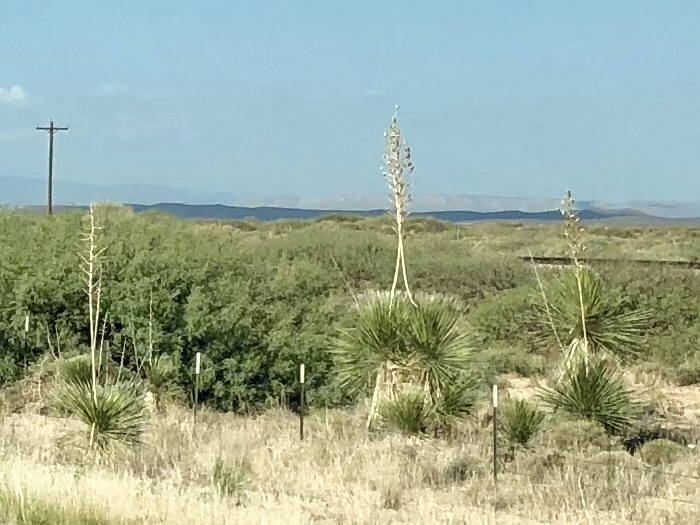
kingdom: Plantae
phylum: Tracheophyta
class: Liliopsida
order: Asparagales
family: Asparagaceae
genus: Yucca
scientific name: Yucca elata
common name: Palmella
